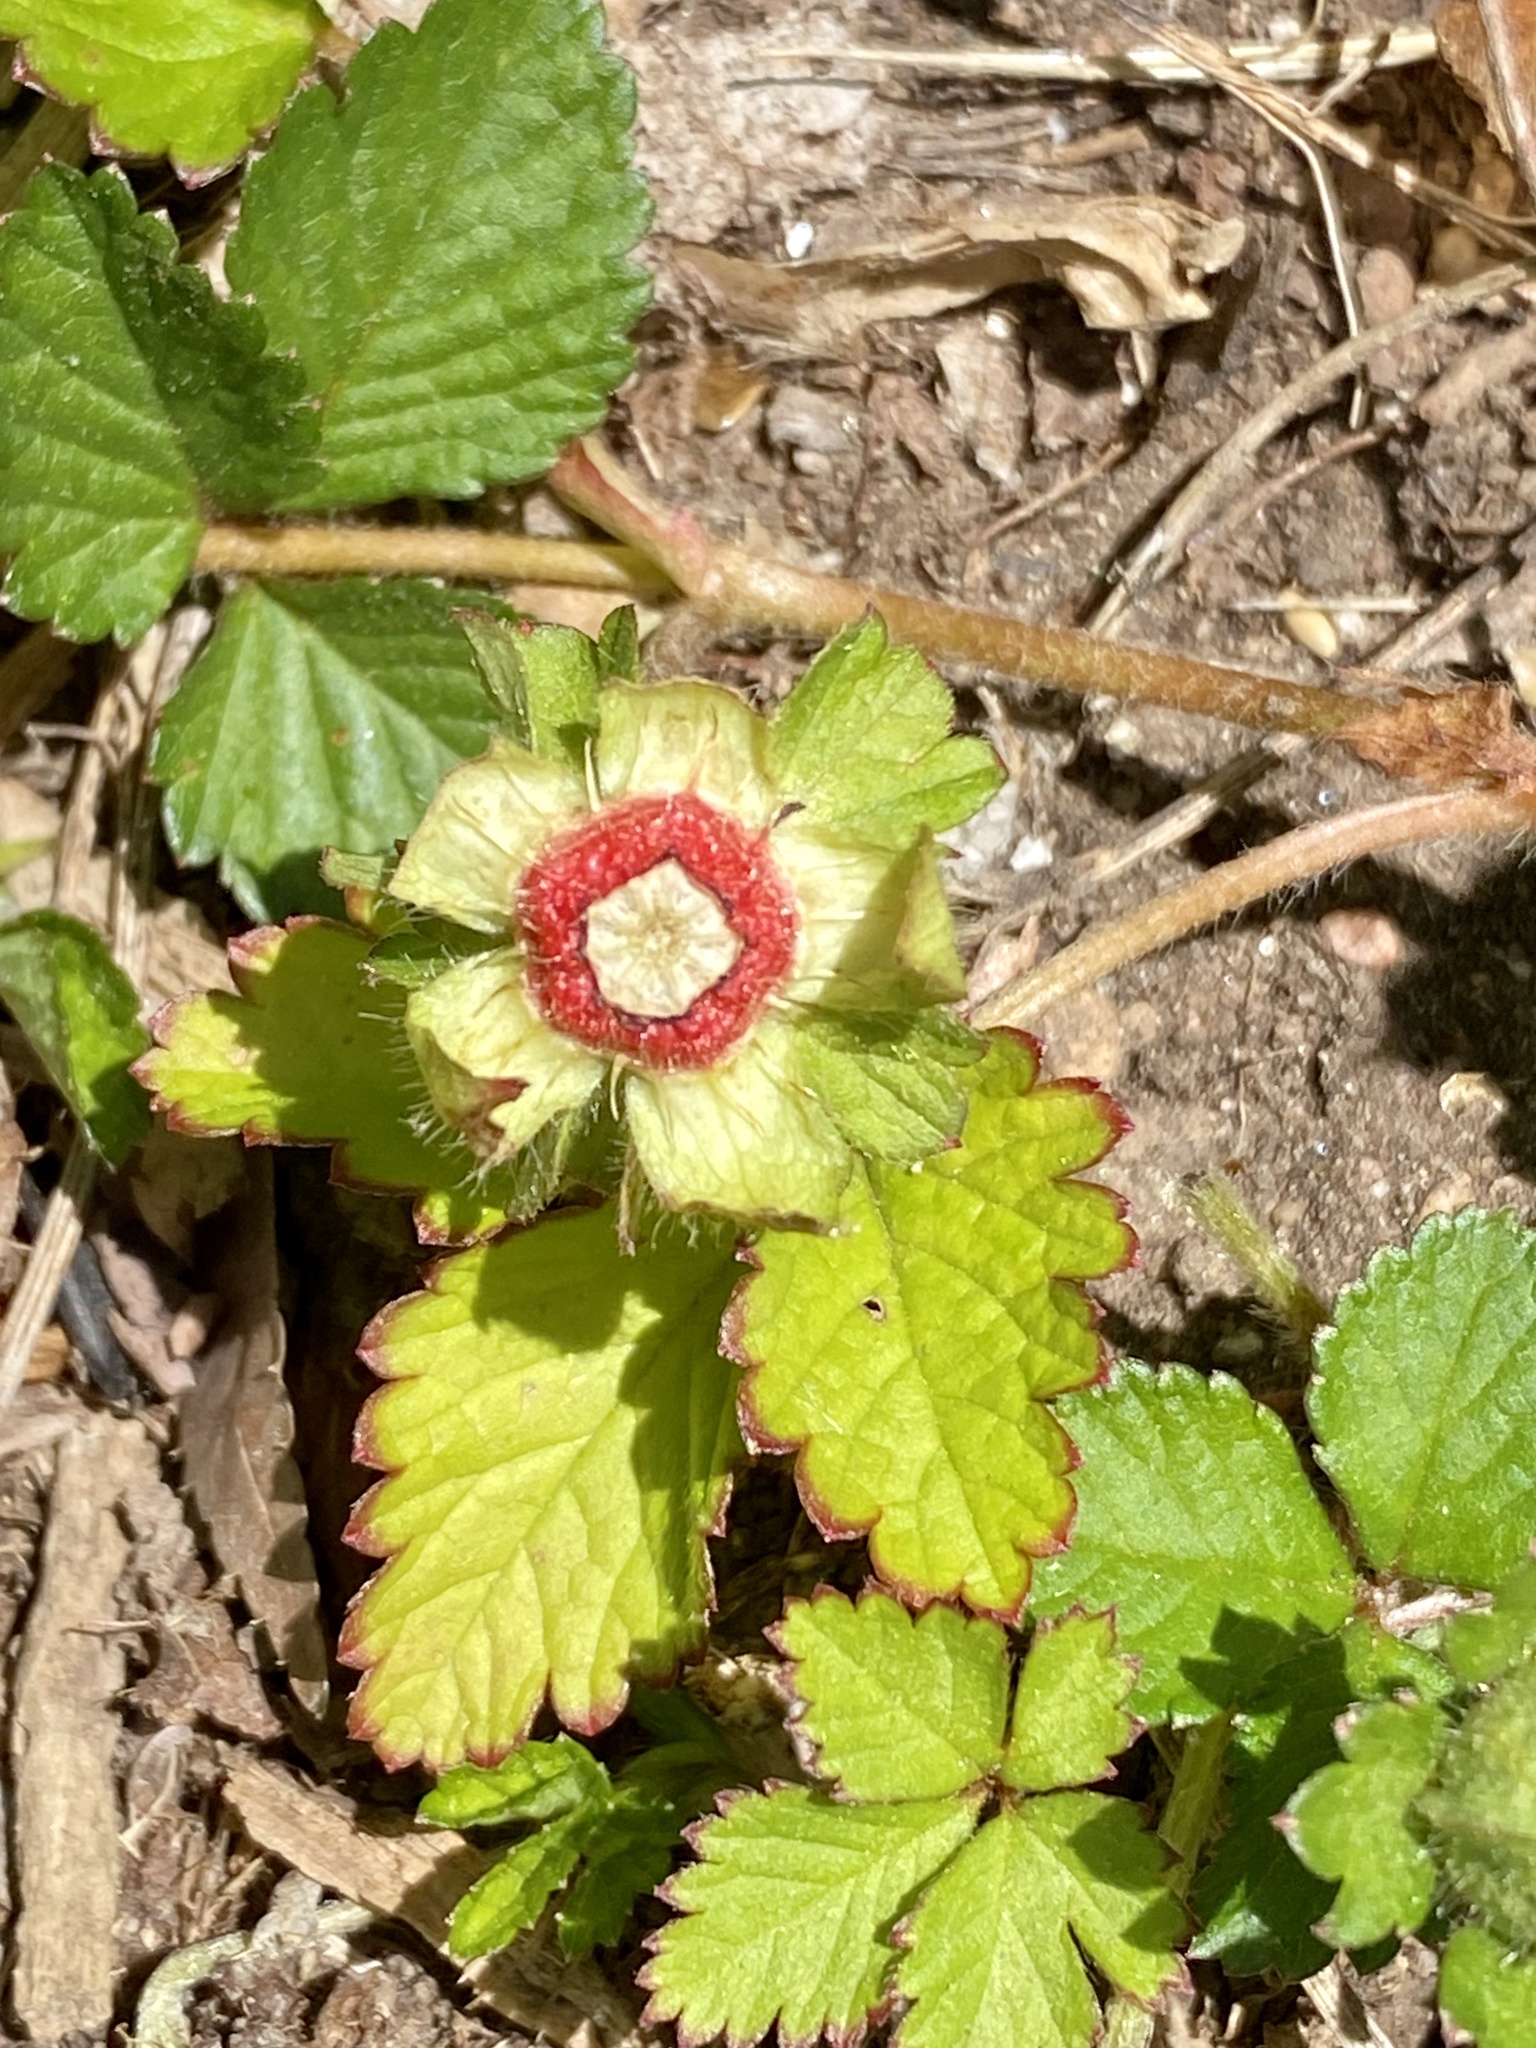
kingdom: Plantae
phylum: Tracheophyta
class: Magnoliopsida
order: Rosales
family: Rosaceae
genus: Potentilla
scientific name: Potentilla indica
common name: Yellow-flowered strawberry
